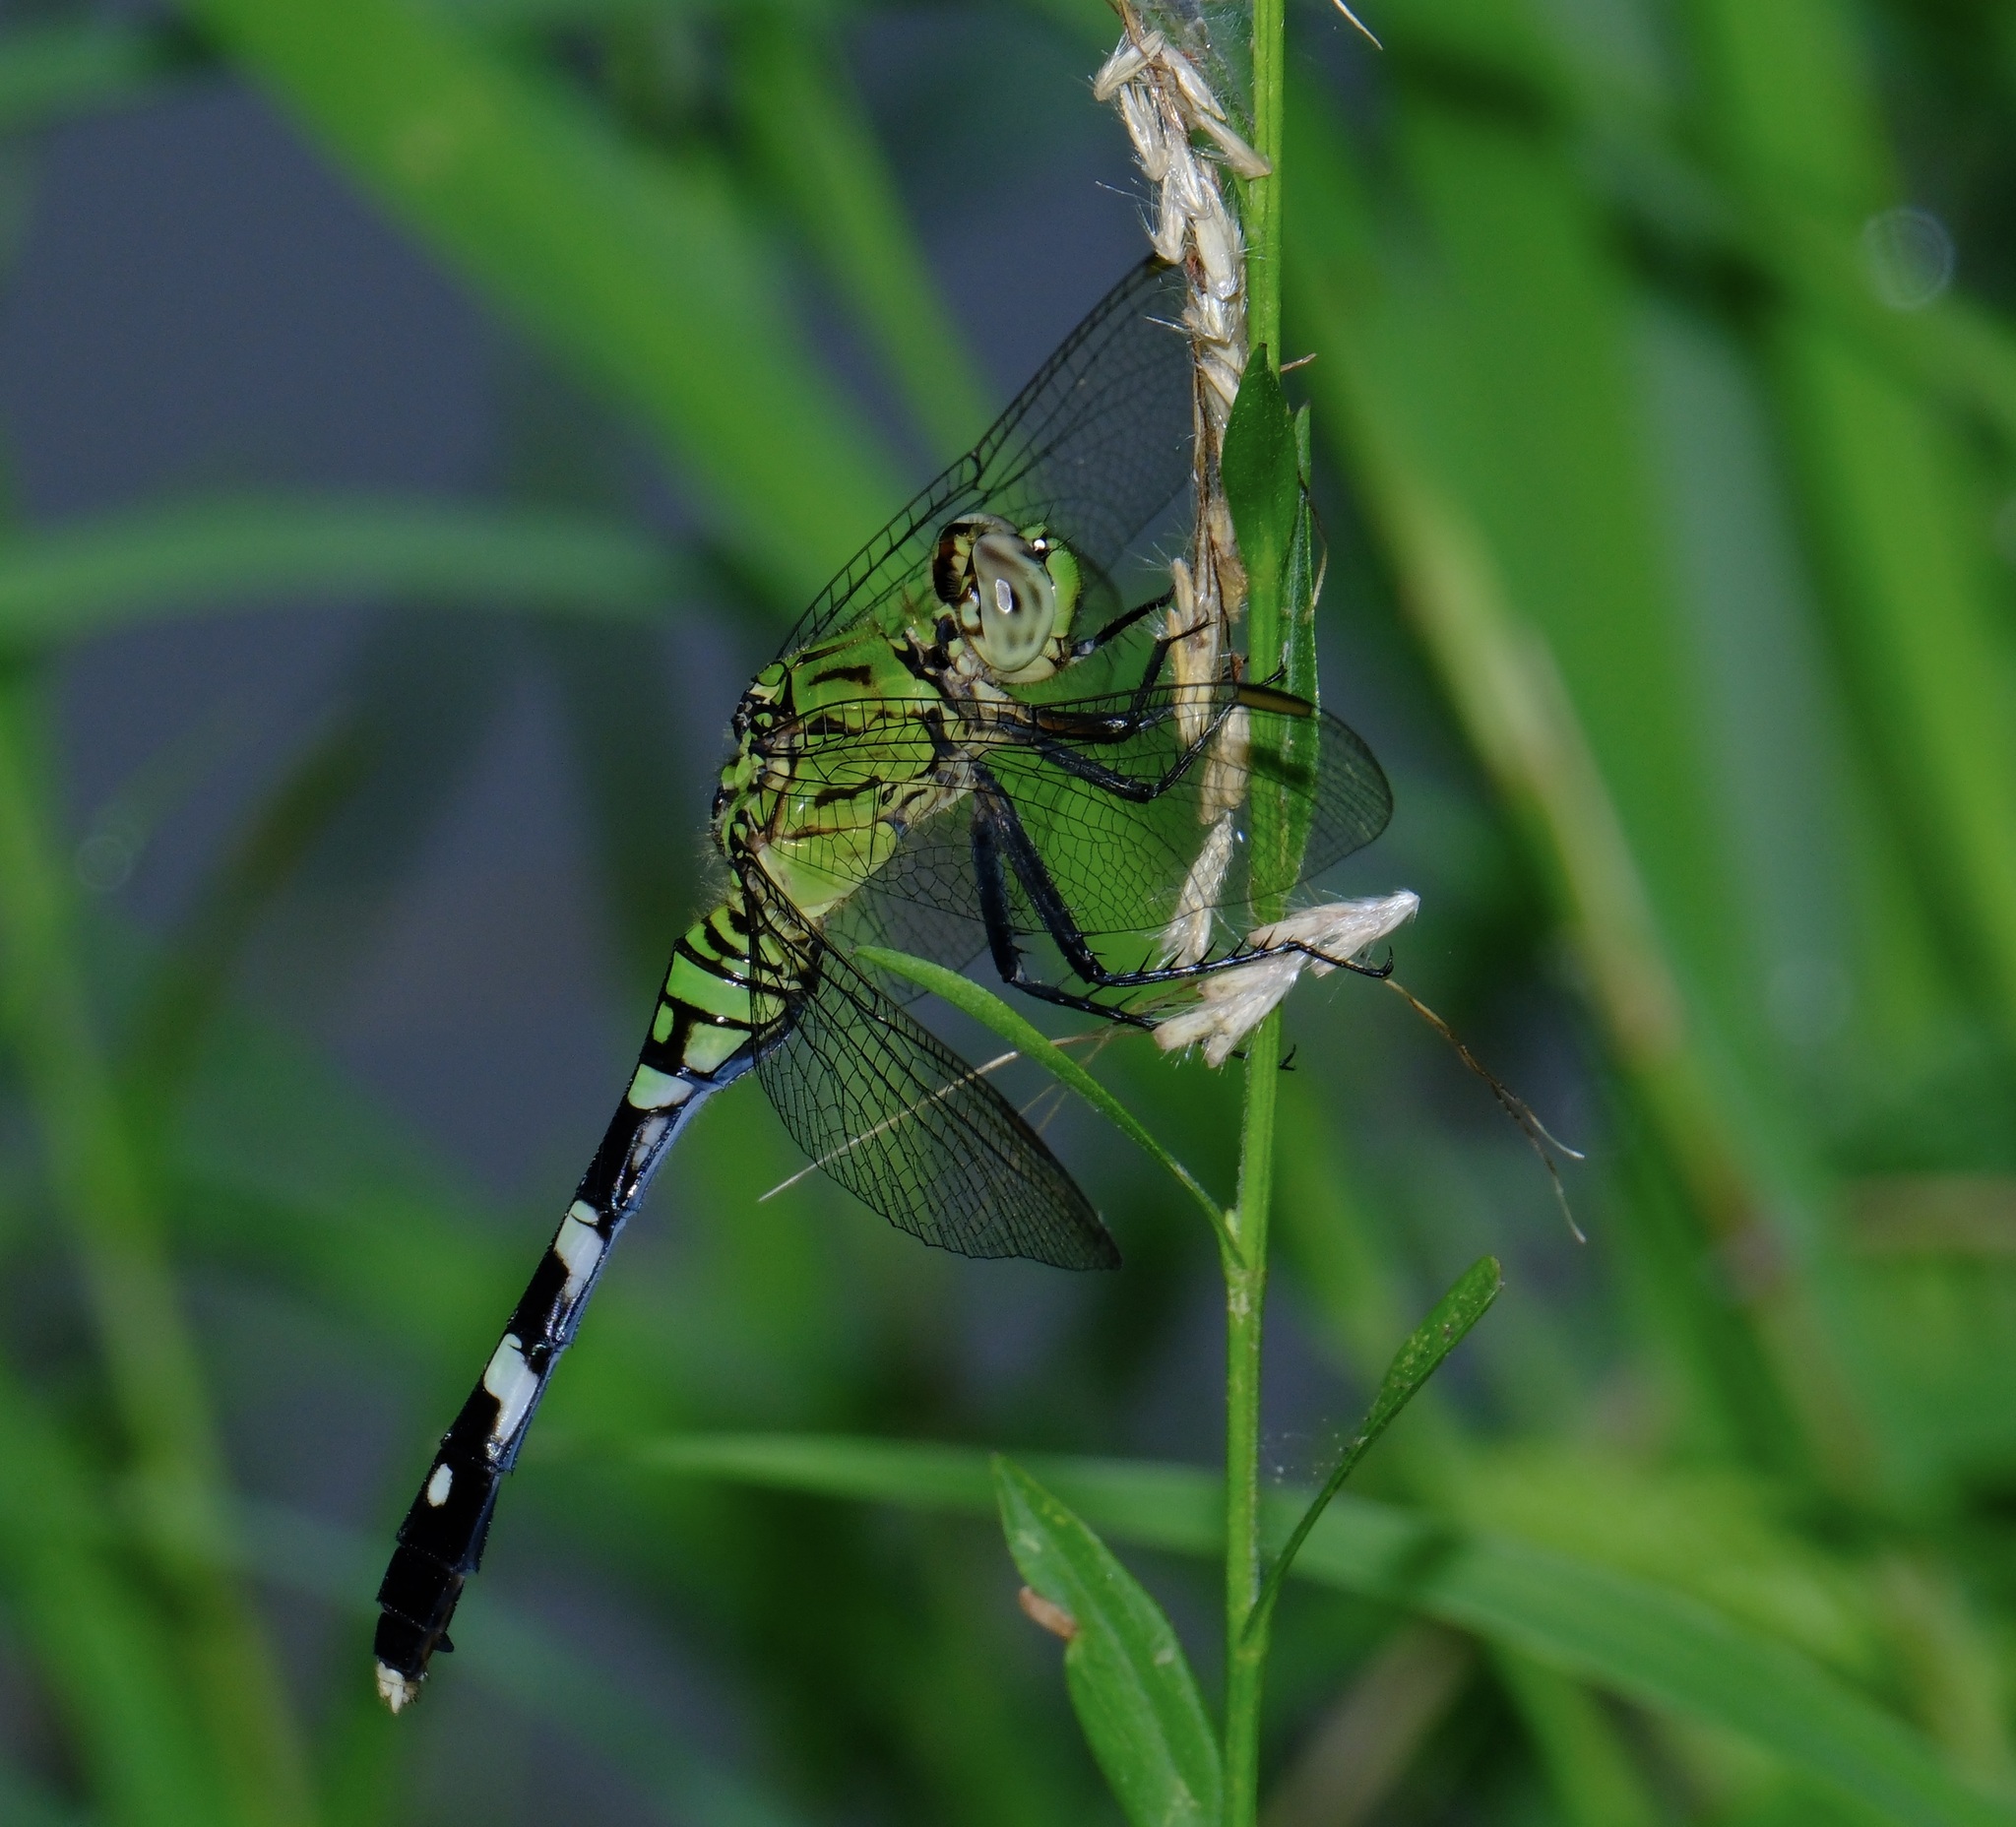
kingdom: Animalia
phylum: Arthropoda
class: Insecta
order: Odonata
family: Libellulidae
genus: Erythemis
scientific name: Erythemis simplicicollis
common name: Eastern pondhawk
